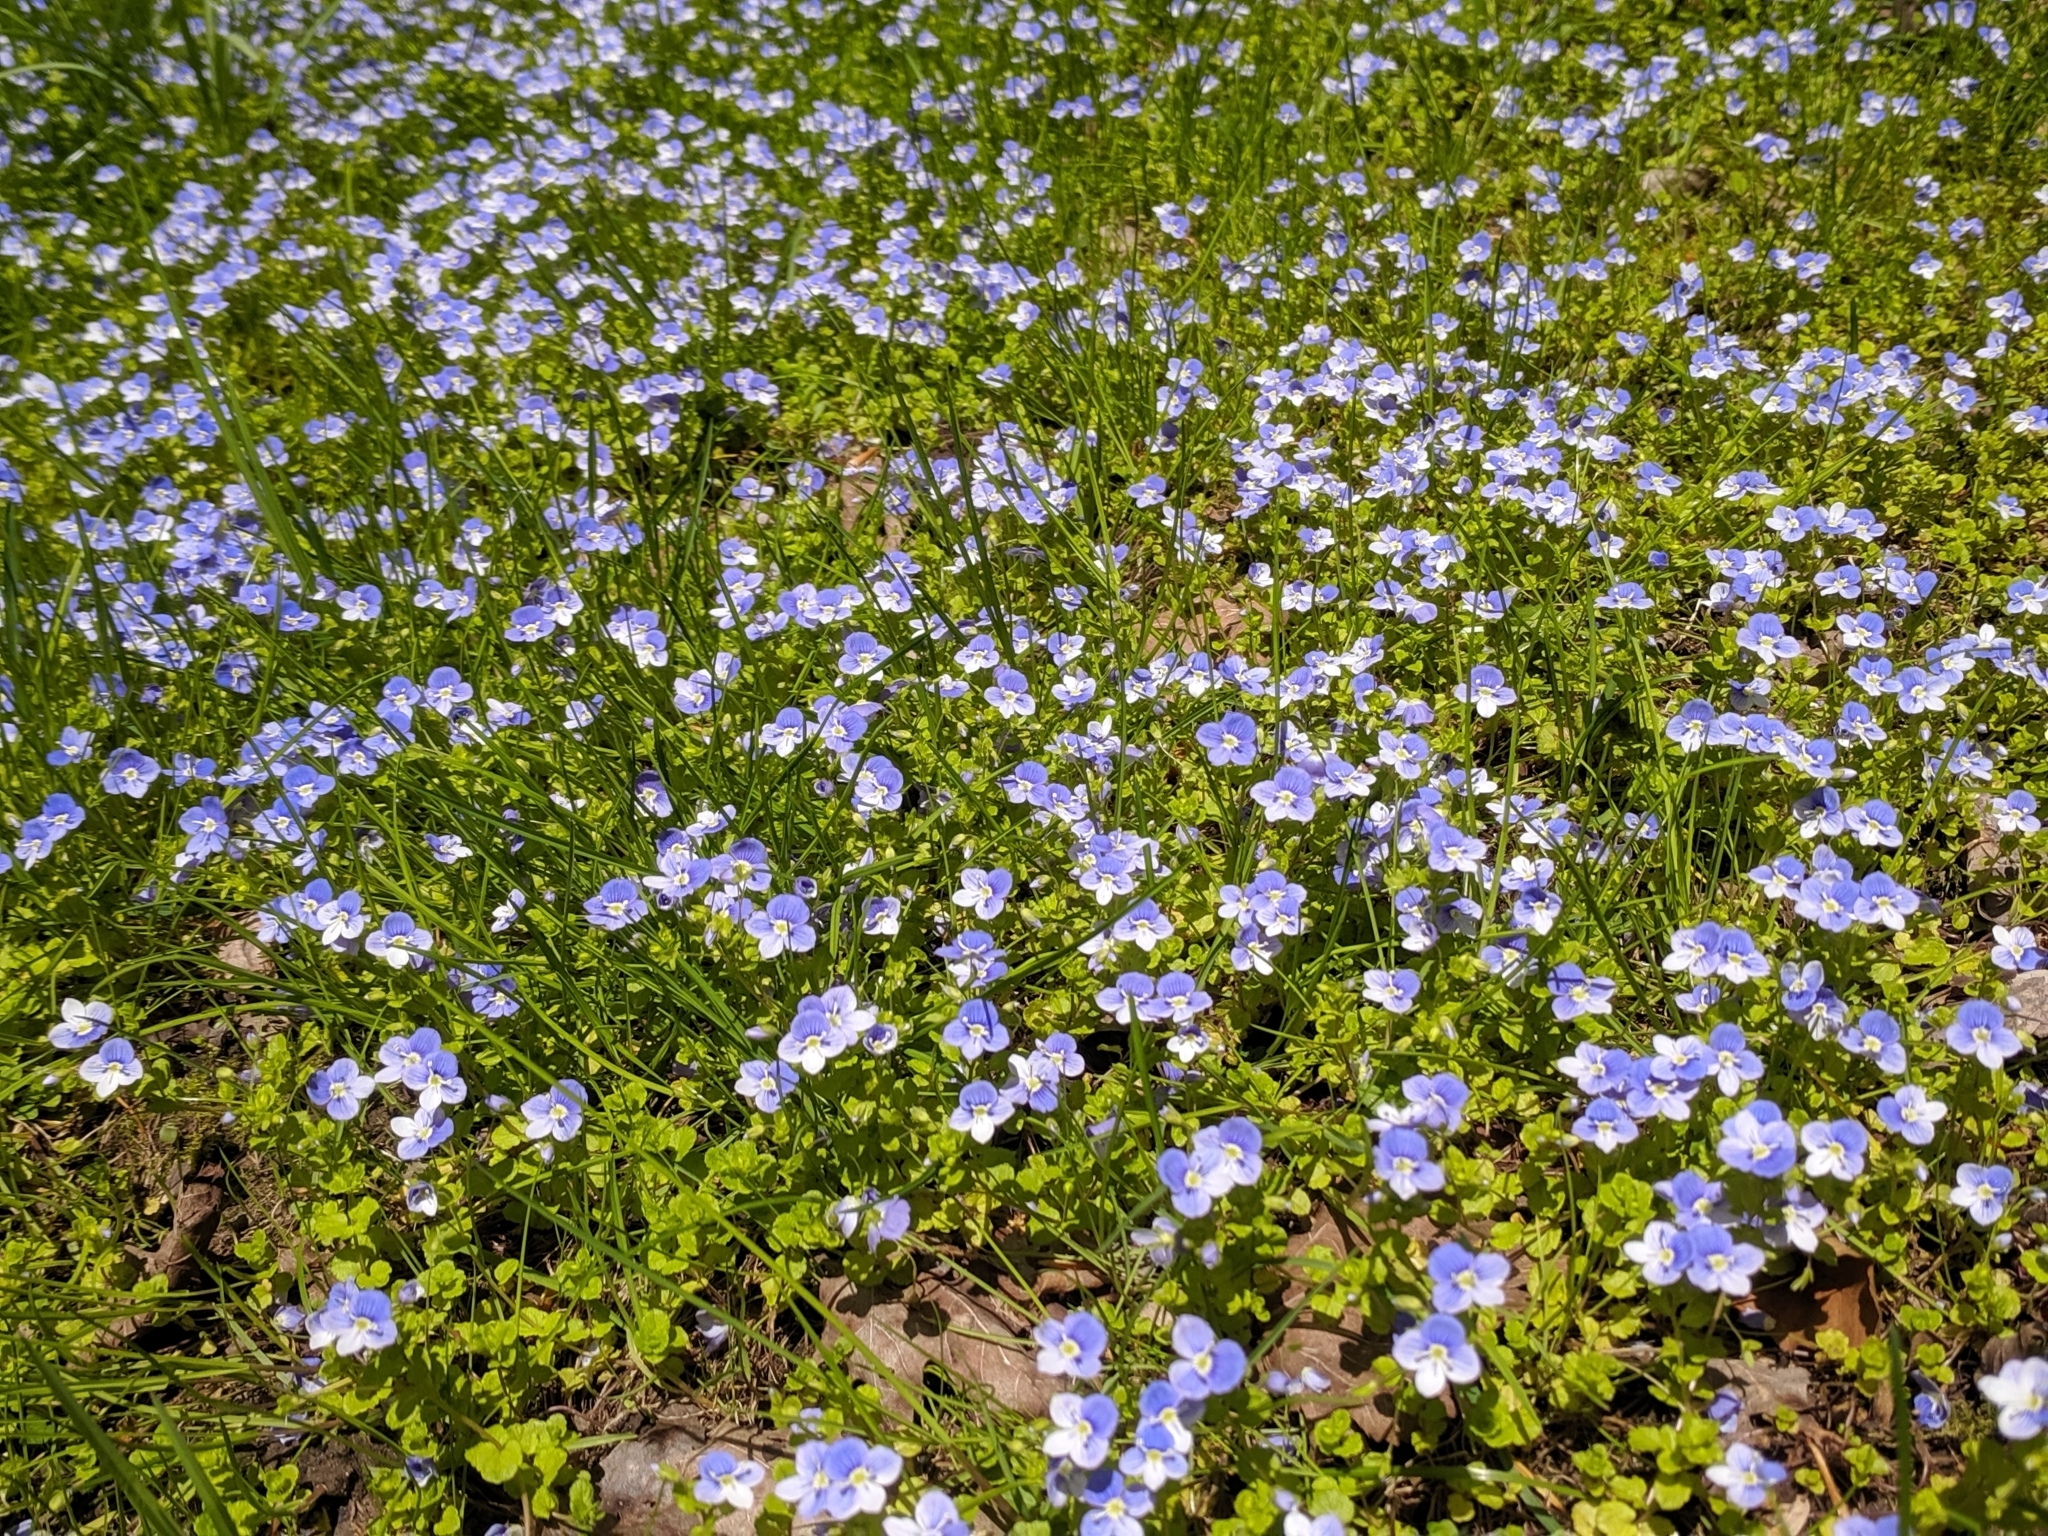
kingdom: Plantae
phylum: Tracheophyta
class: Magnoliopsida
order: Lamiales
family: Plantaginaceae
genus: Veronica
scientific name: Veronica filiformis
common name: Slender speedwell
